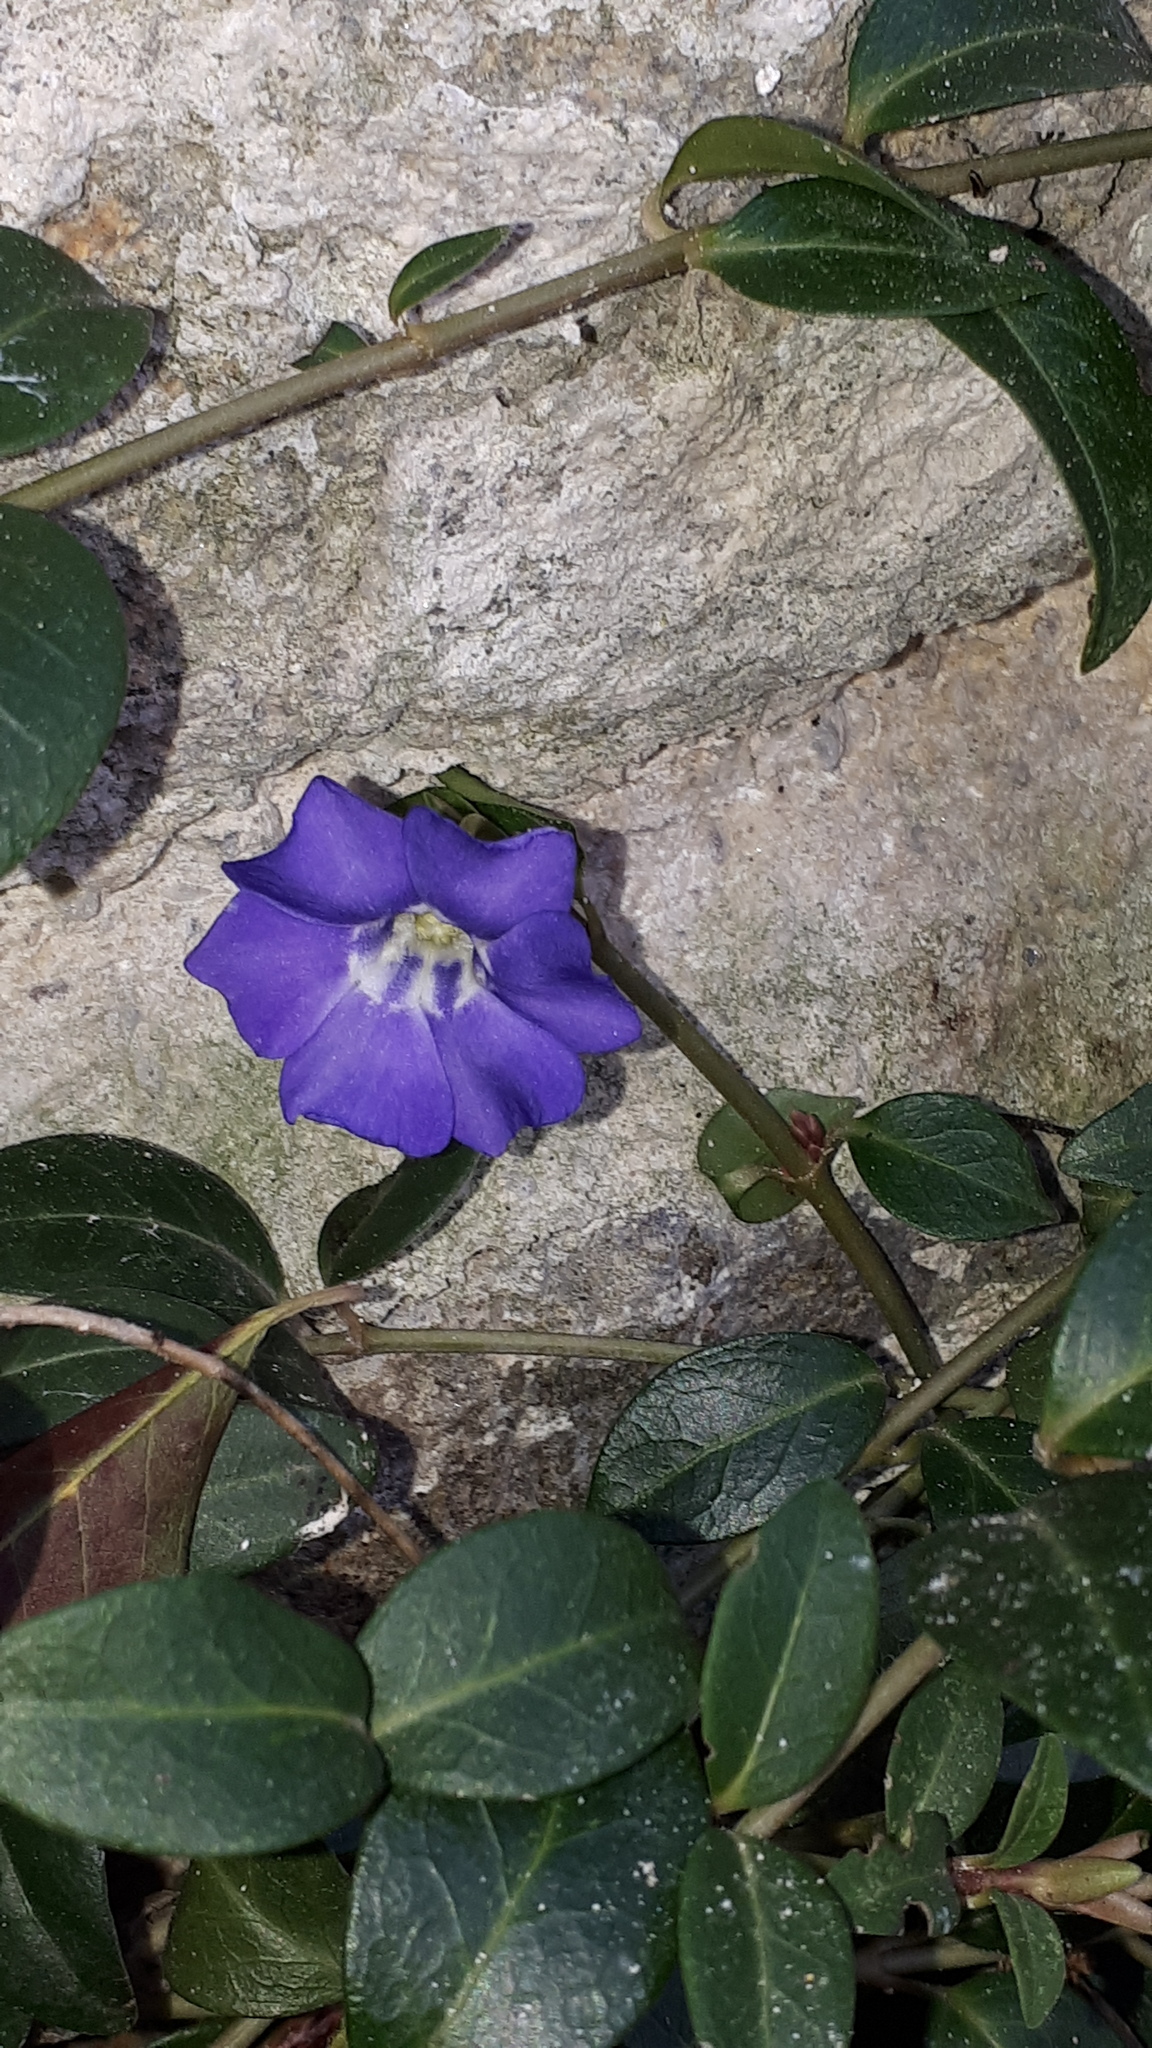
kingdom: Plantae
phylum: Tracheophyta
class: Magnoliopsida
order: Gentianales
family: Apocynaceae
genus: Vinca
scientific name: Vinca minor
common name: Lesser periwinkle
